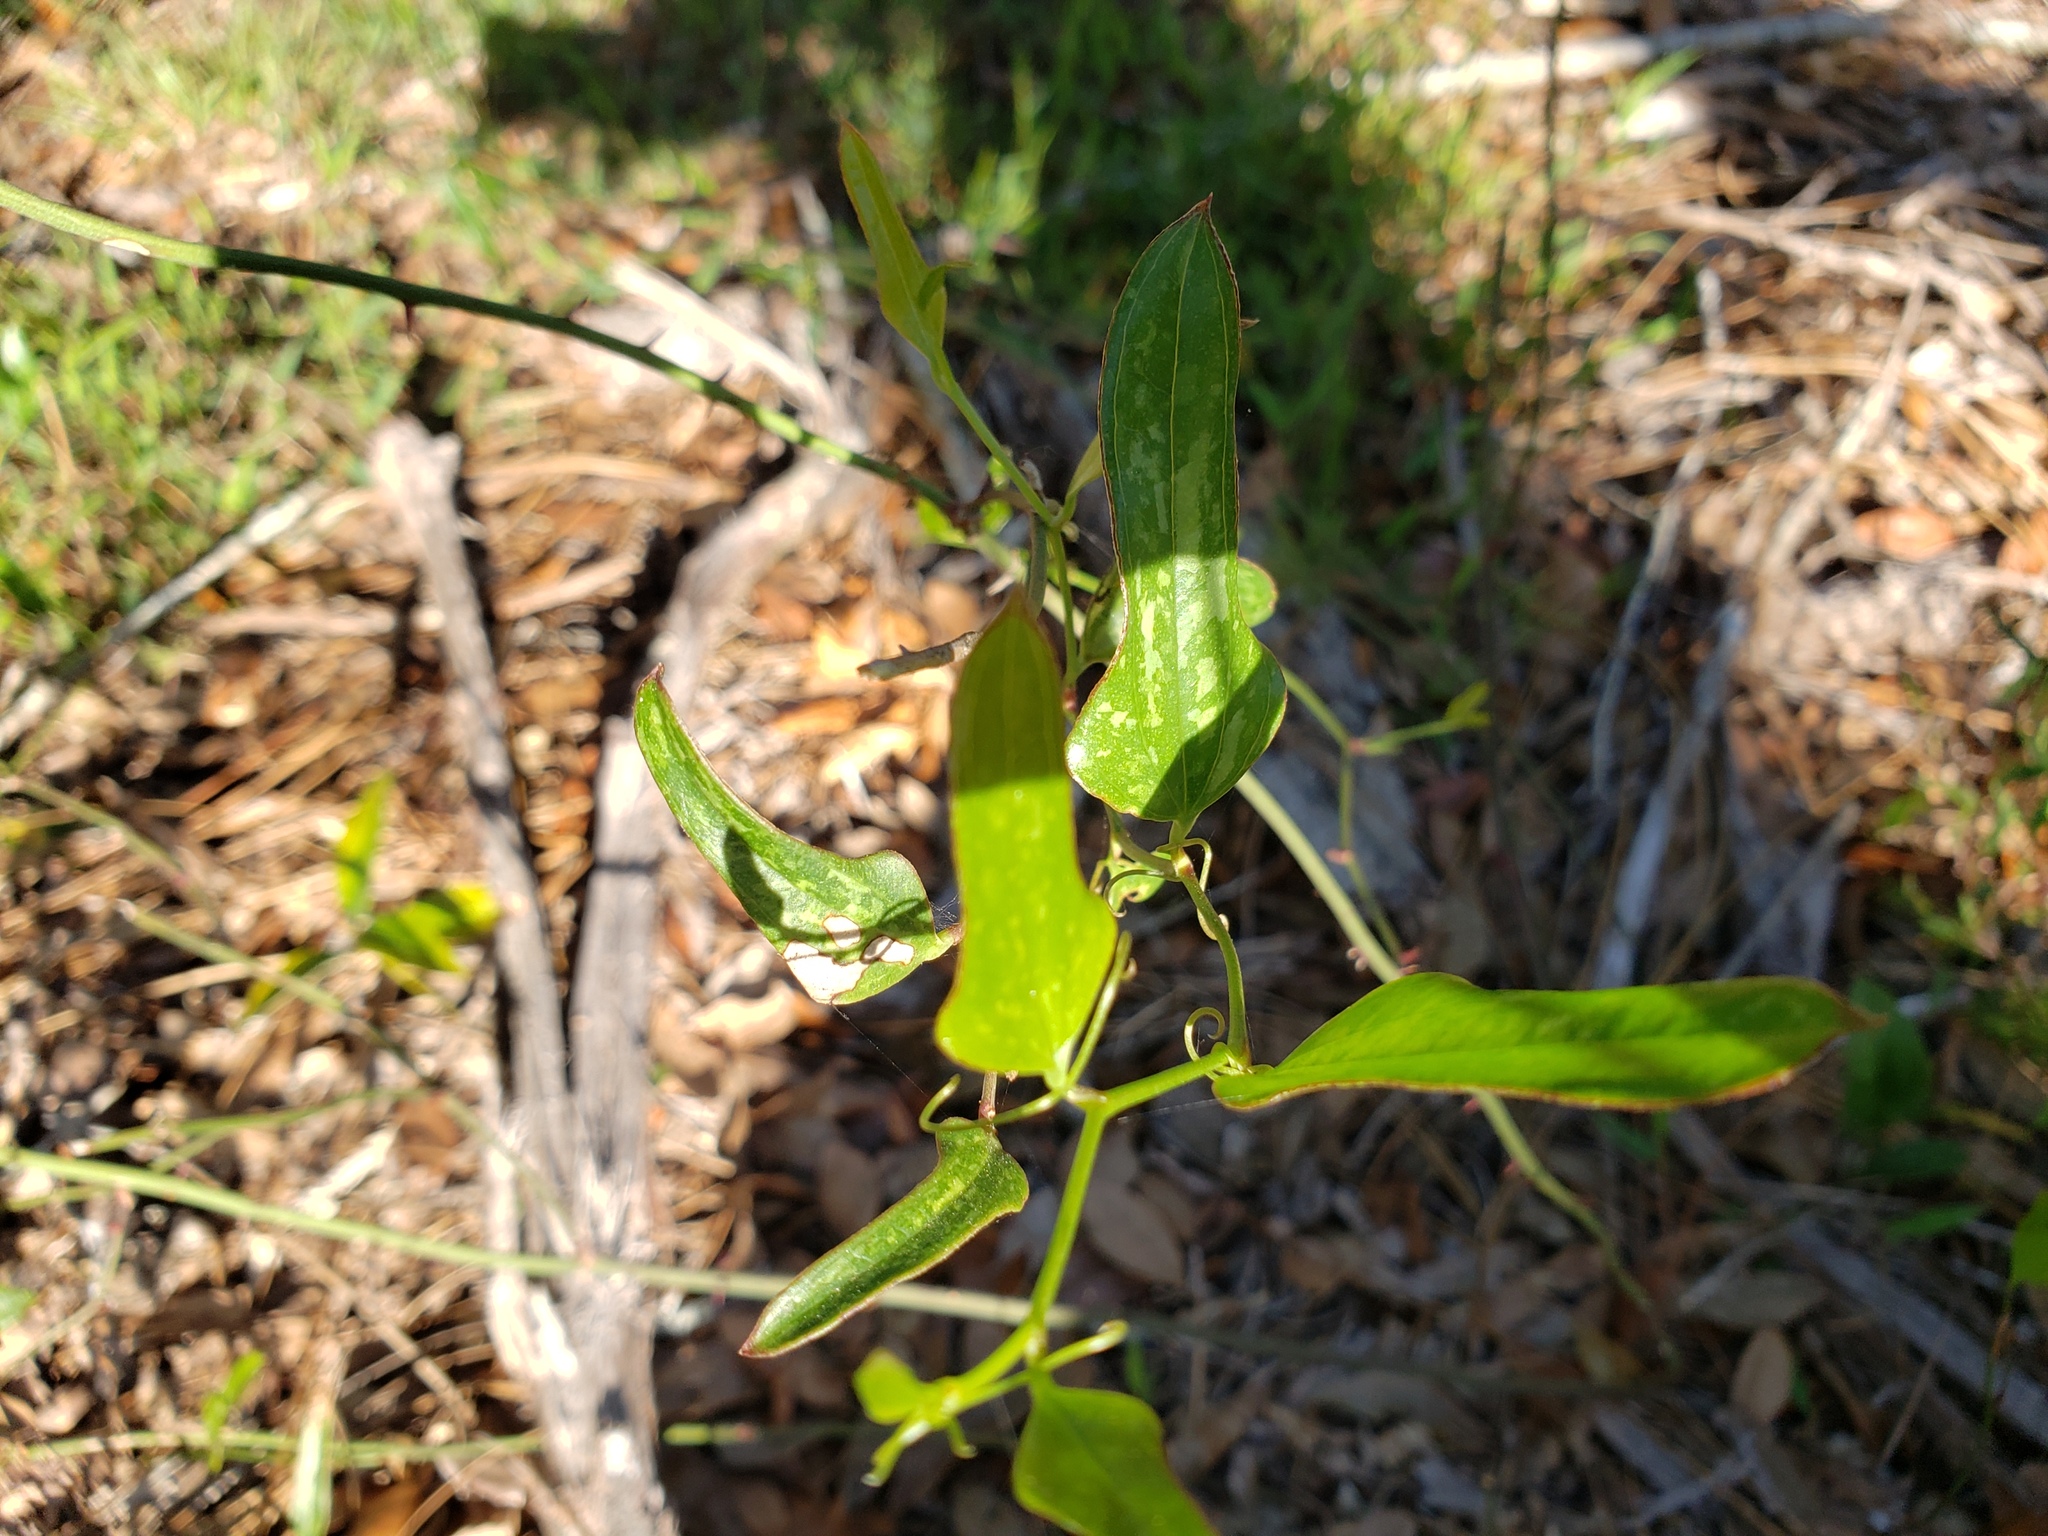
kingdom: Plantae
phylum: Tracheophyta
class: Liliopsida
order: Liliales
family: Smilacaceae
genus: Smilax
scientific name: Smilax auriculata
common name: Wild bamboo
